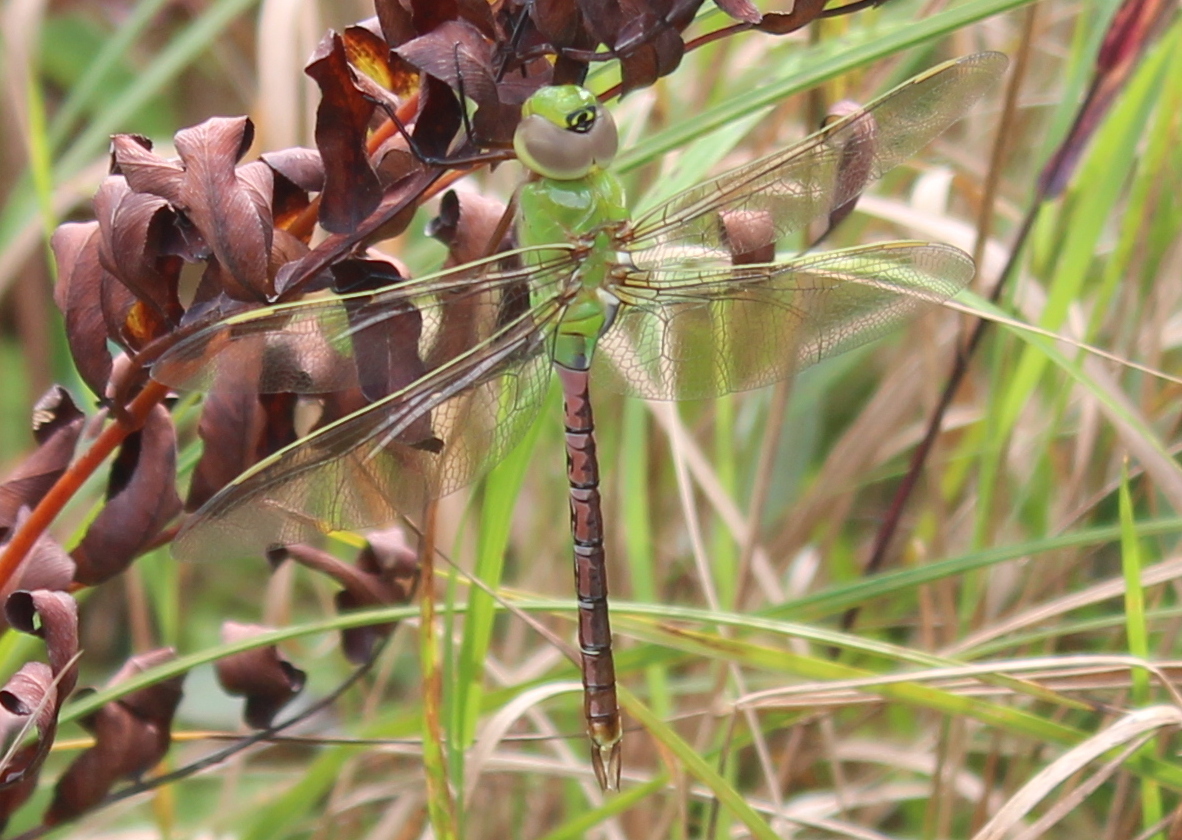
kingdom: Animalia
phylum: Arthropoda
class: Insecta
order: Odonata
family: Aeshnidae
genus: Anax
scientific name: Anax junius
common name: Common green darner
